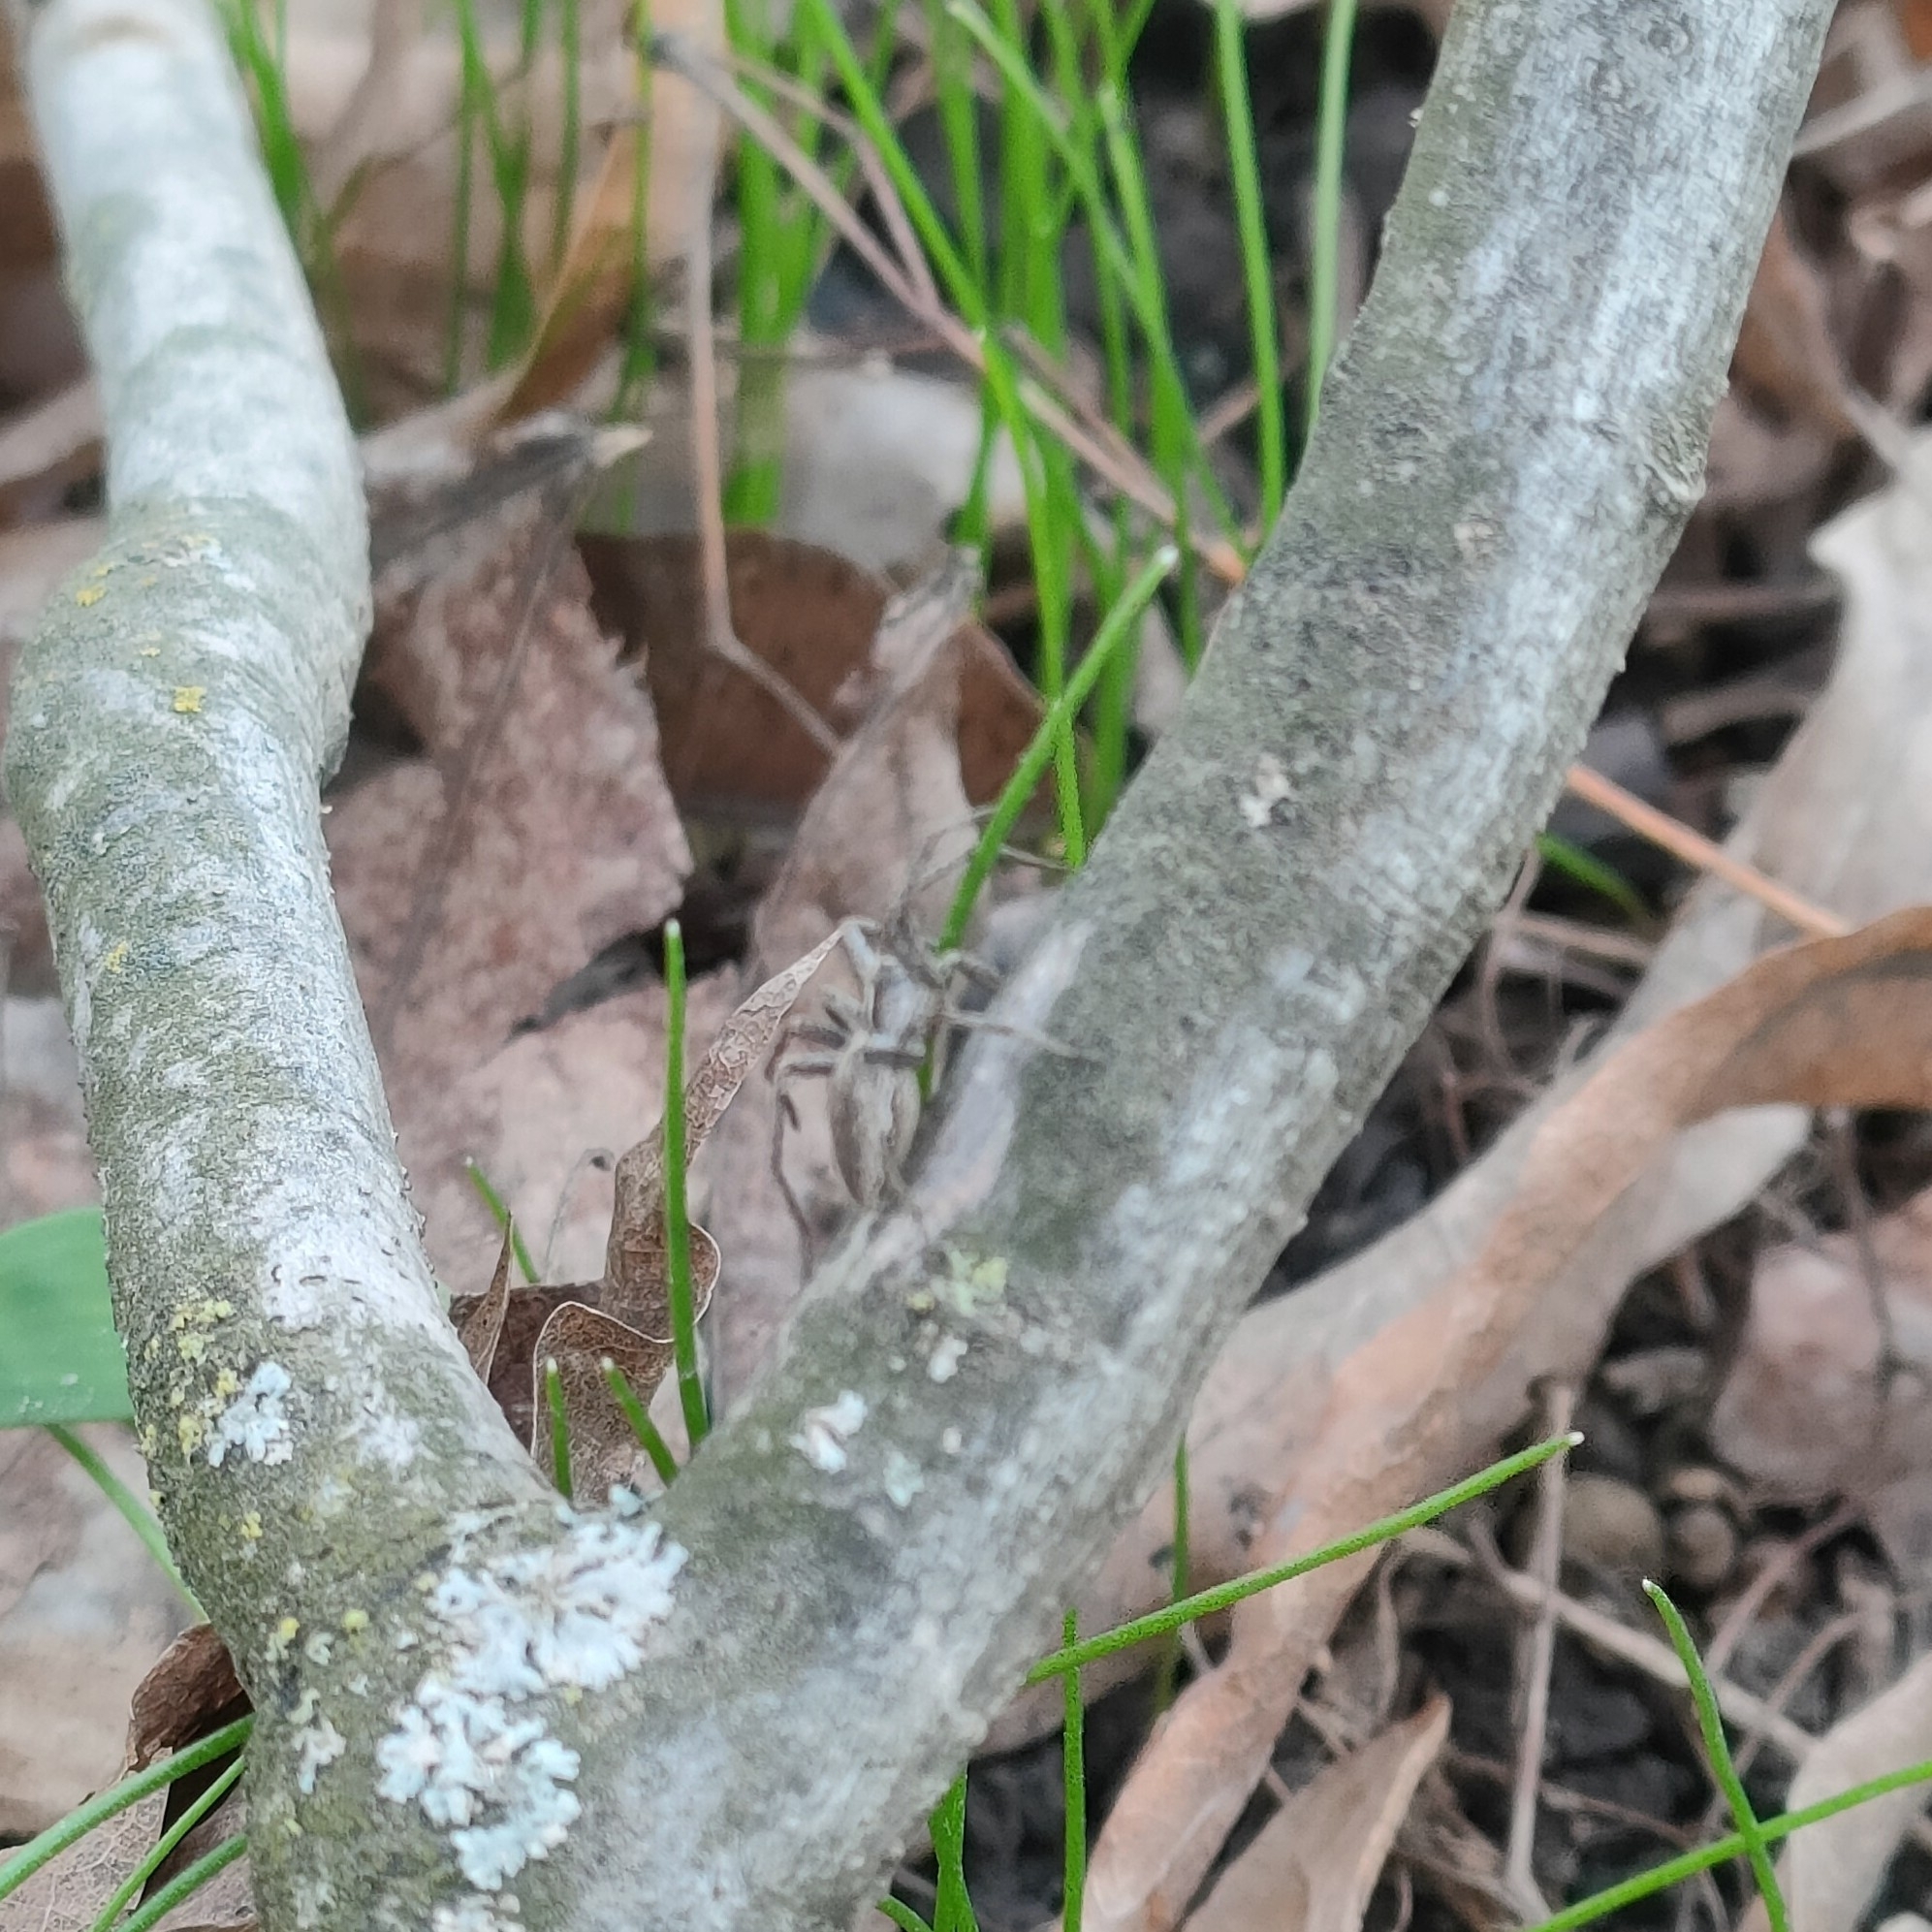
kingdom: Animalia
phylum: Arthropoda
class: Arachnida
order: Araneae
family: Pisauridae
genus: Pisaura
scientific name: Pisaura
